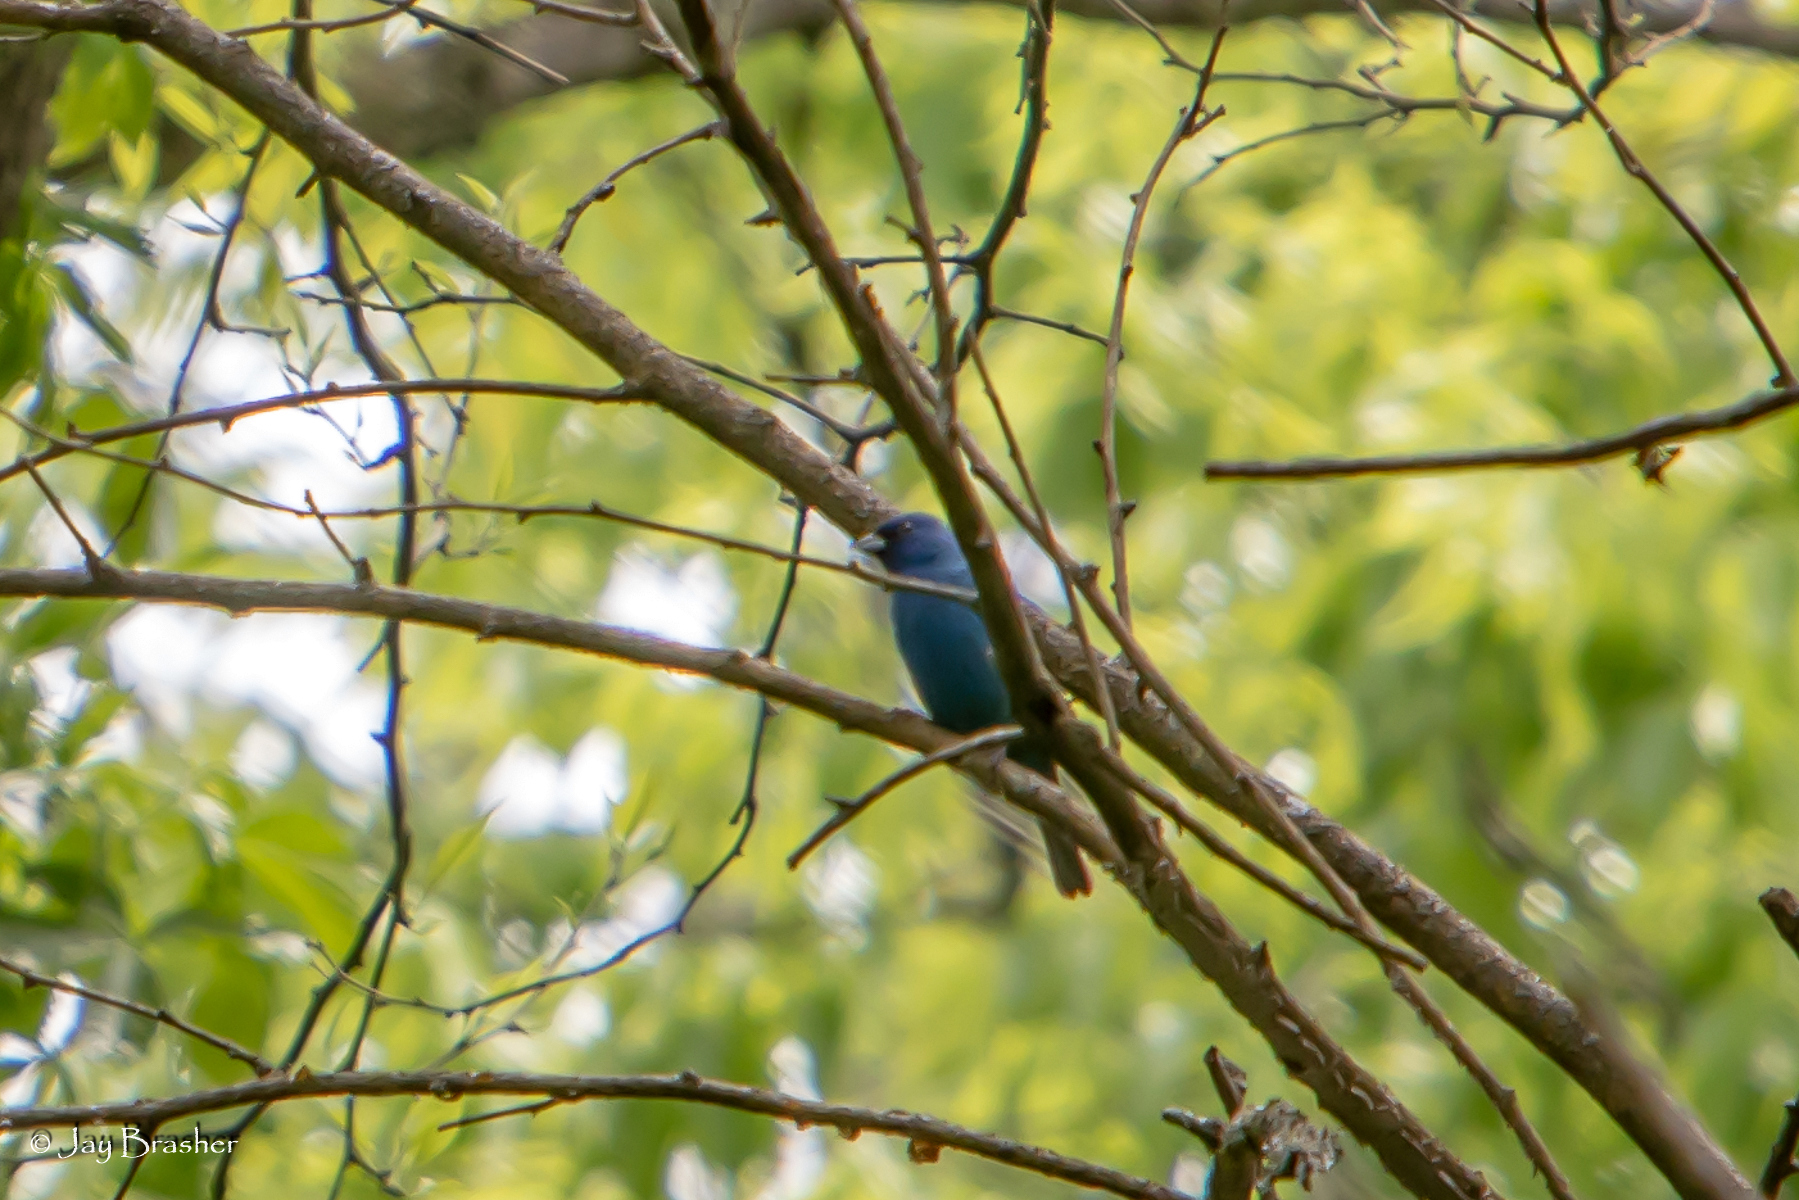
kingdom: Animalia
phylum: Chordata
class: Aves
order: Passeriformes
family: Cardinalidae
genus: Passerina
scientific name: Passerina cyanea
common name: Indigo bunting
